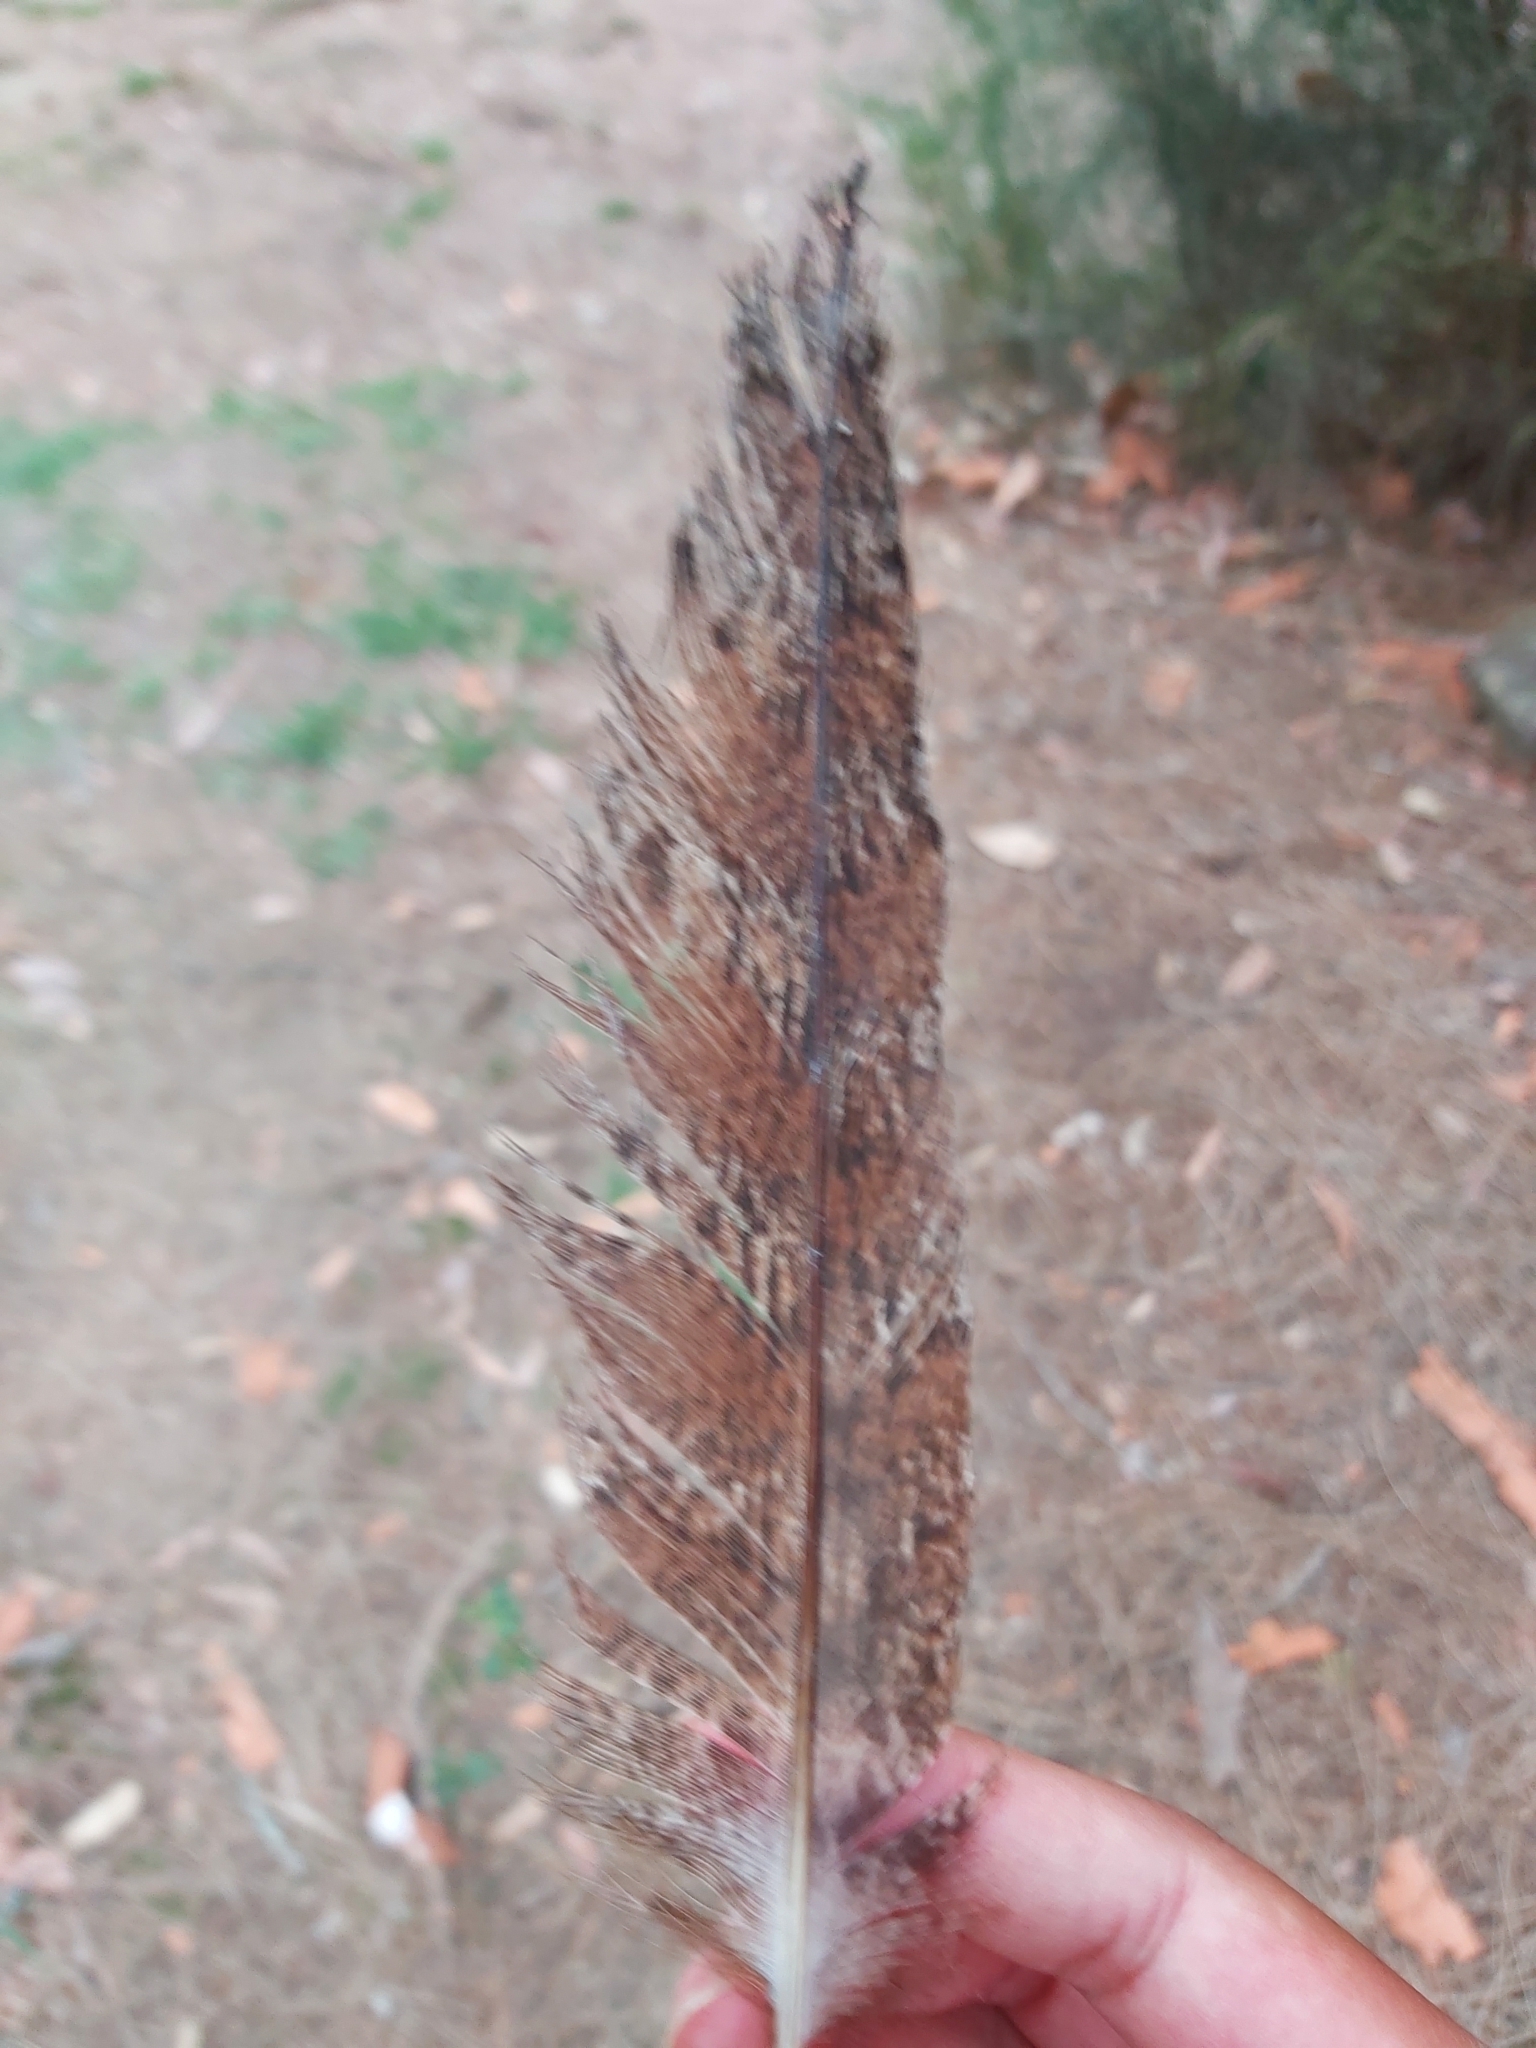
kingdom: Animalia
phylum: Chordata
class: Aves
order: Caprimulgiformes
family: Podargidae
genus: Podargus
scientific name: Podargus strigoides
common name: Tawny frogmouth
